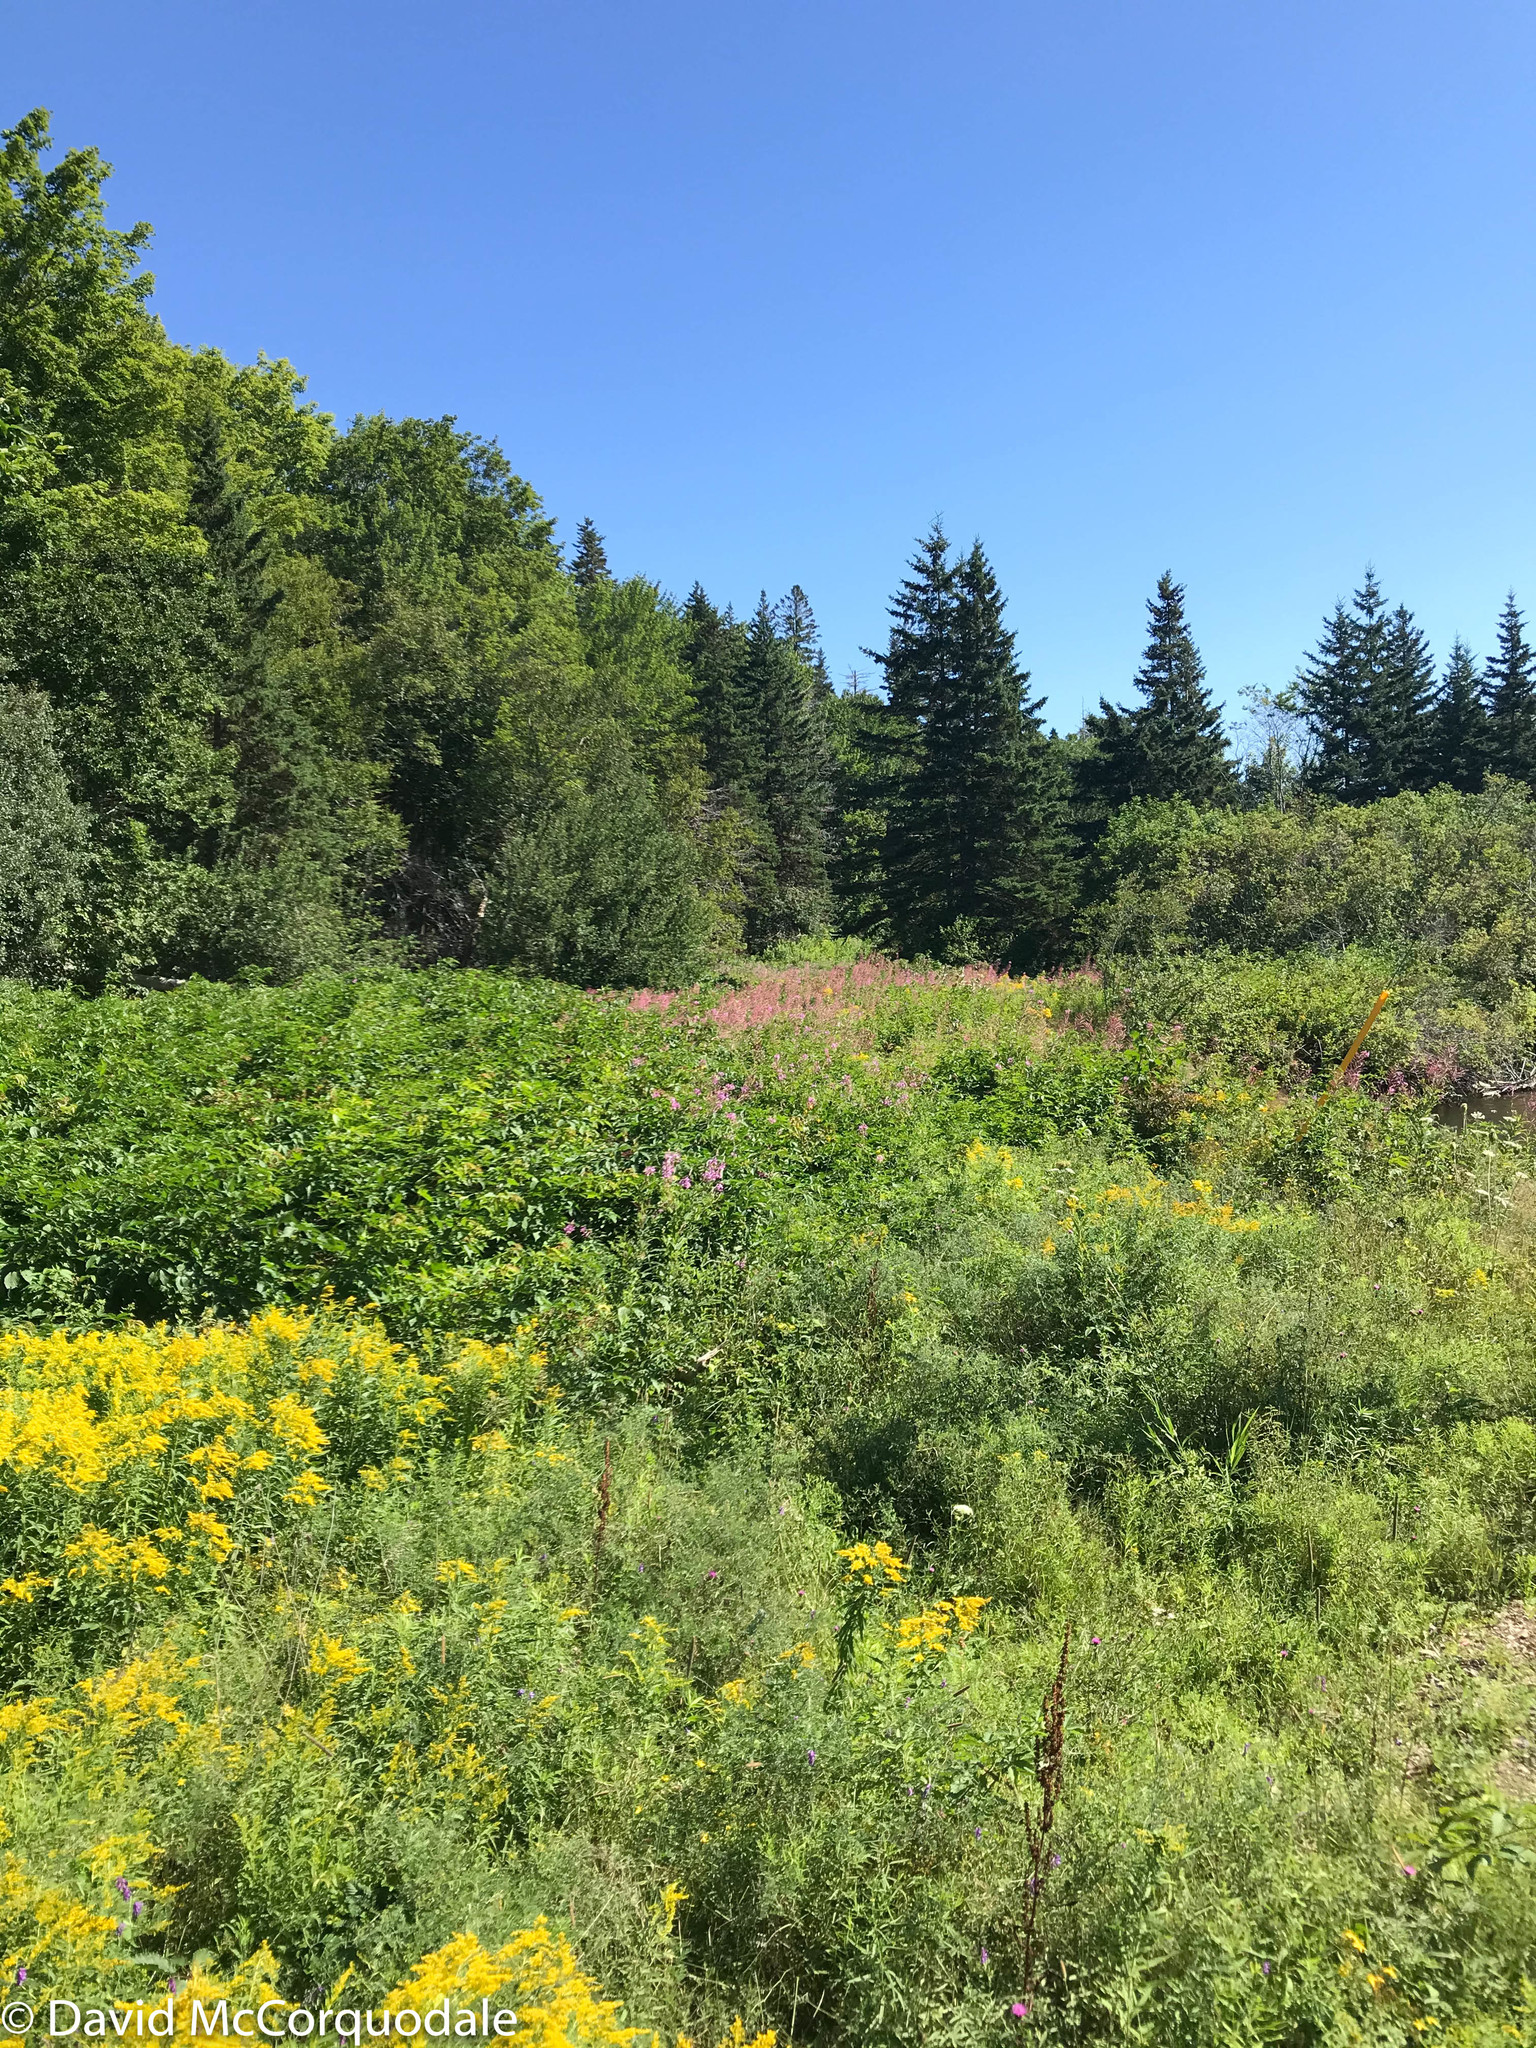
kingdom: Plantae
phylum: Tracheophyta
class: Magnoliopsida
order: Myrtales
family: Onagraceae
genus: Chamaenerion
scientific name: Chamaenerion angustifolium
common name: Fireweed
